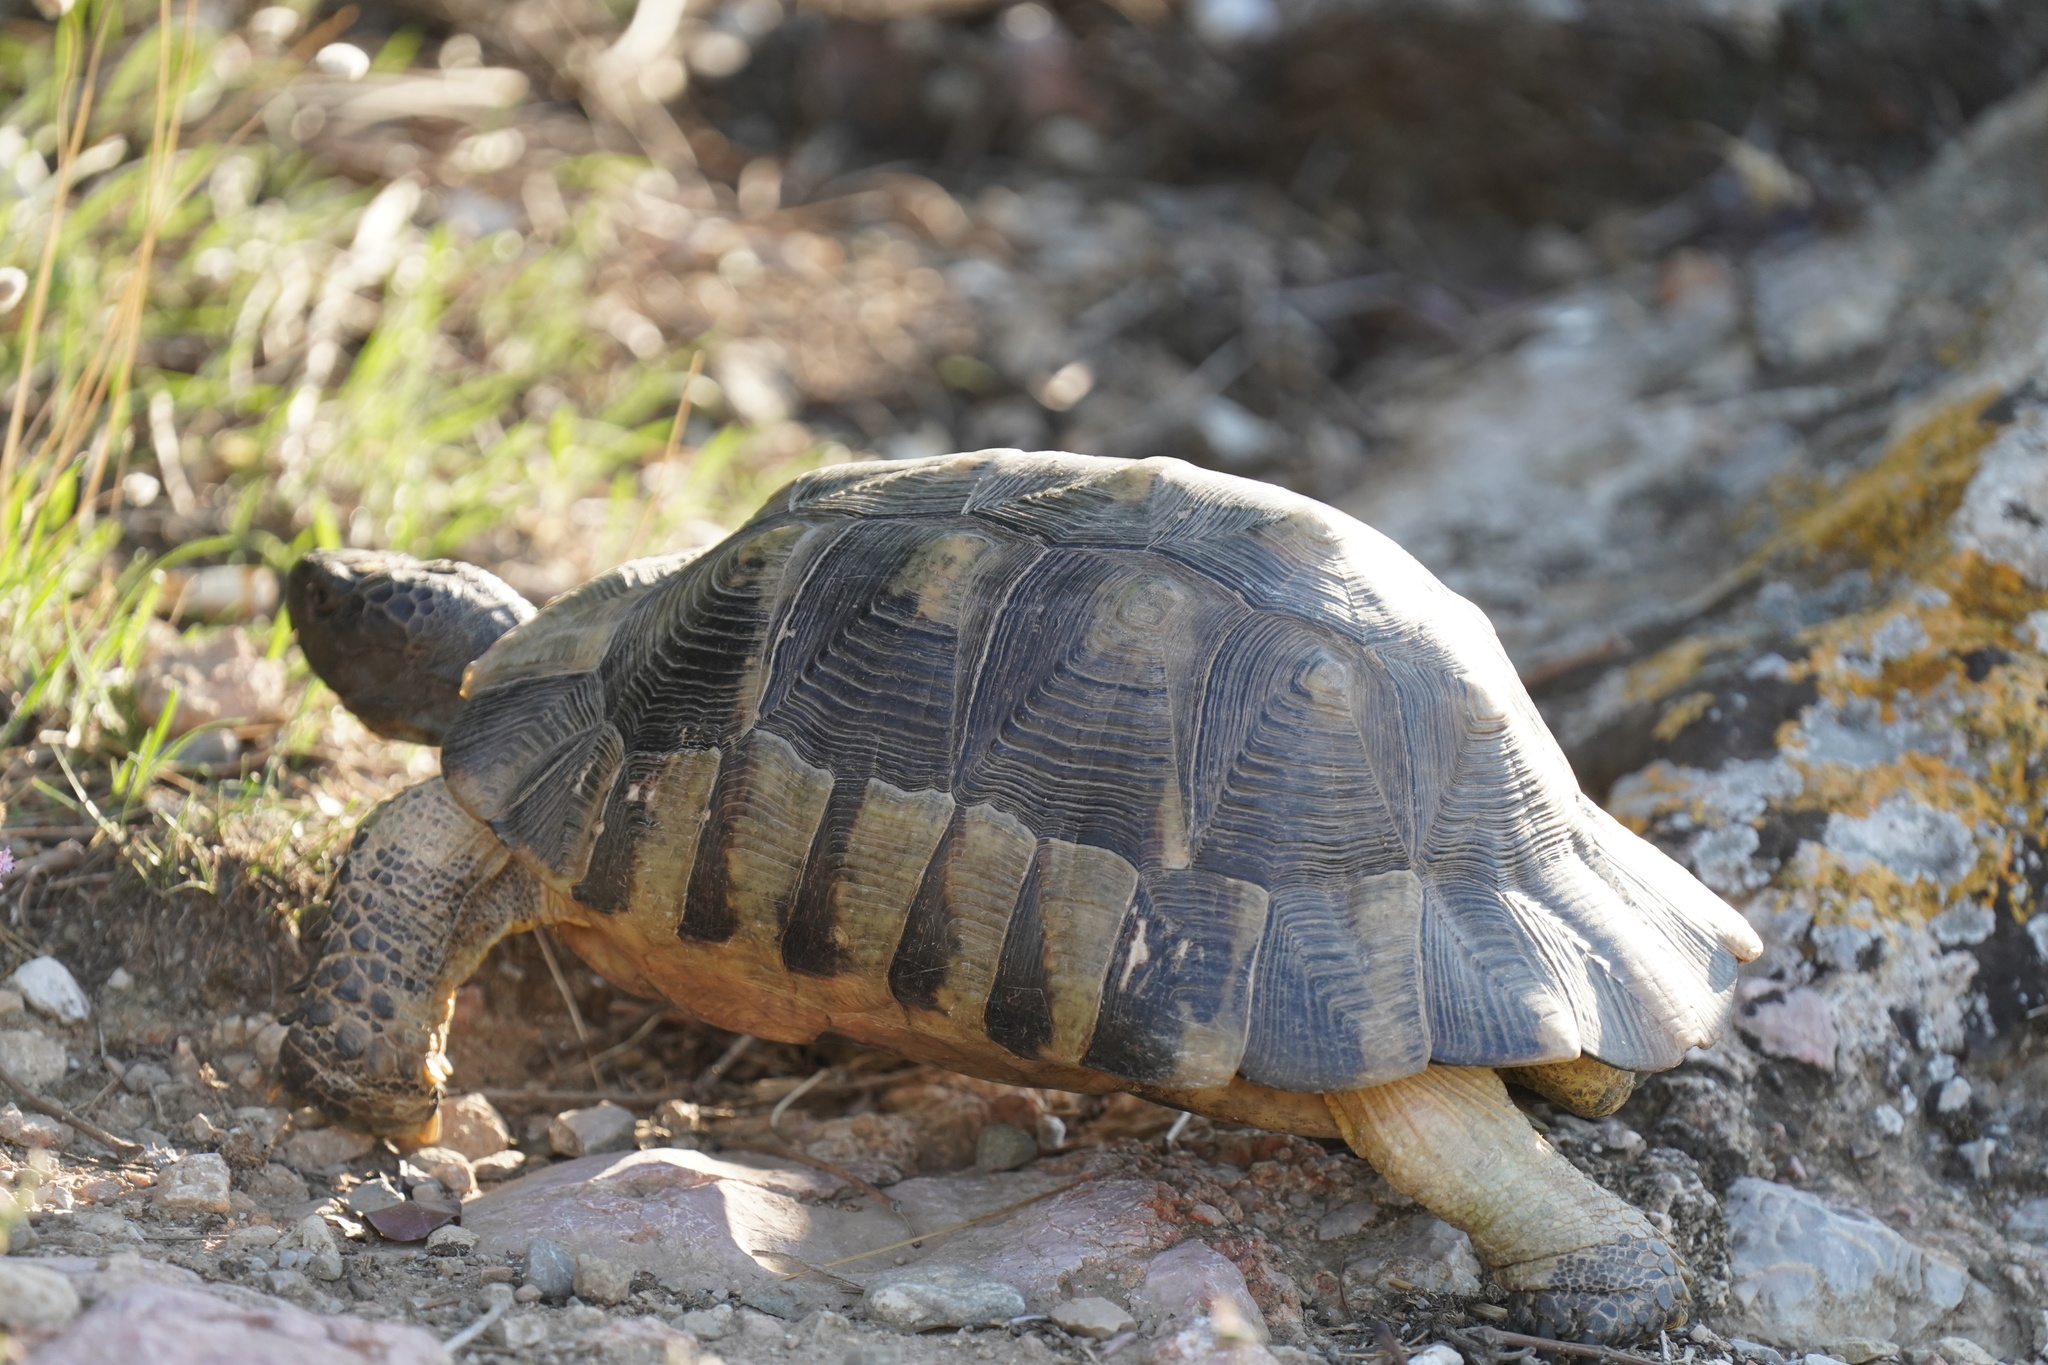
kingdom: Animalia
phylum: Chordata
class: Testudines
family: Testudinidae
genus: Testudo
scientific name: Testudo marginata
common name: Marginated tortoise
